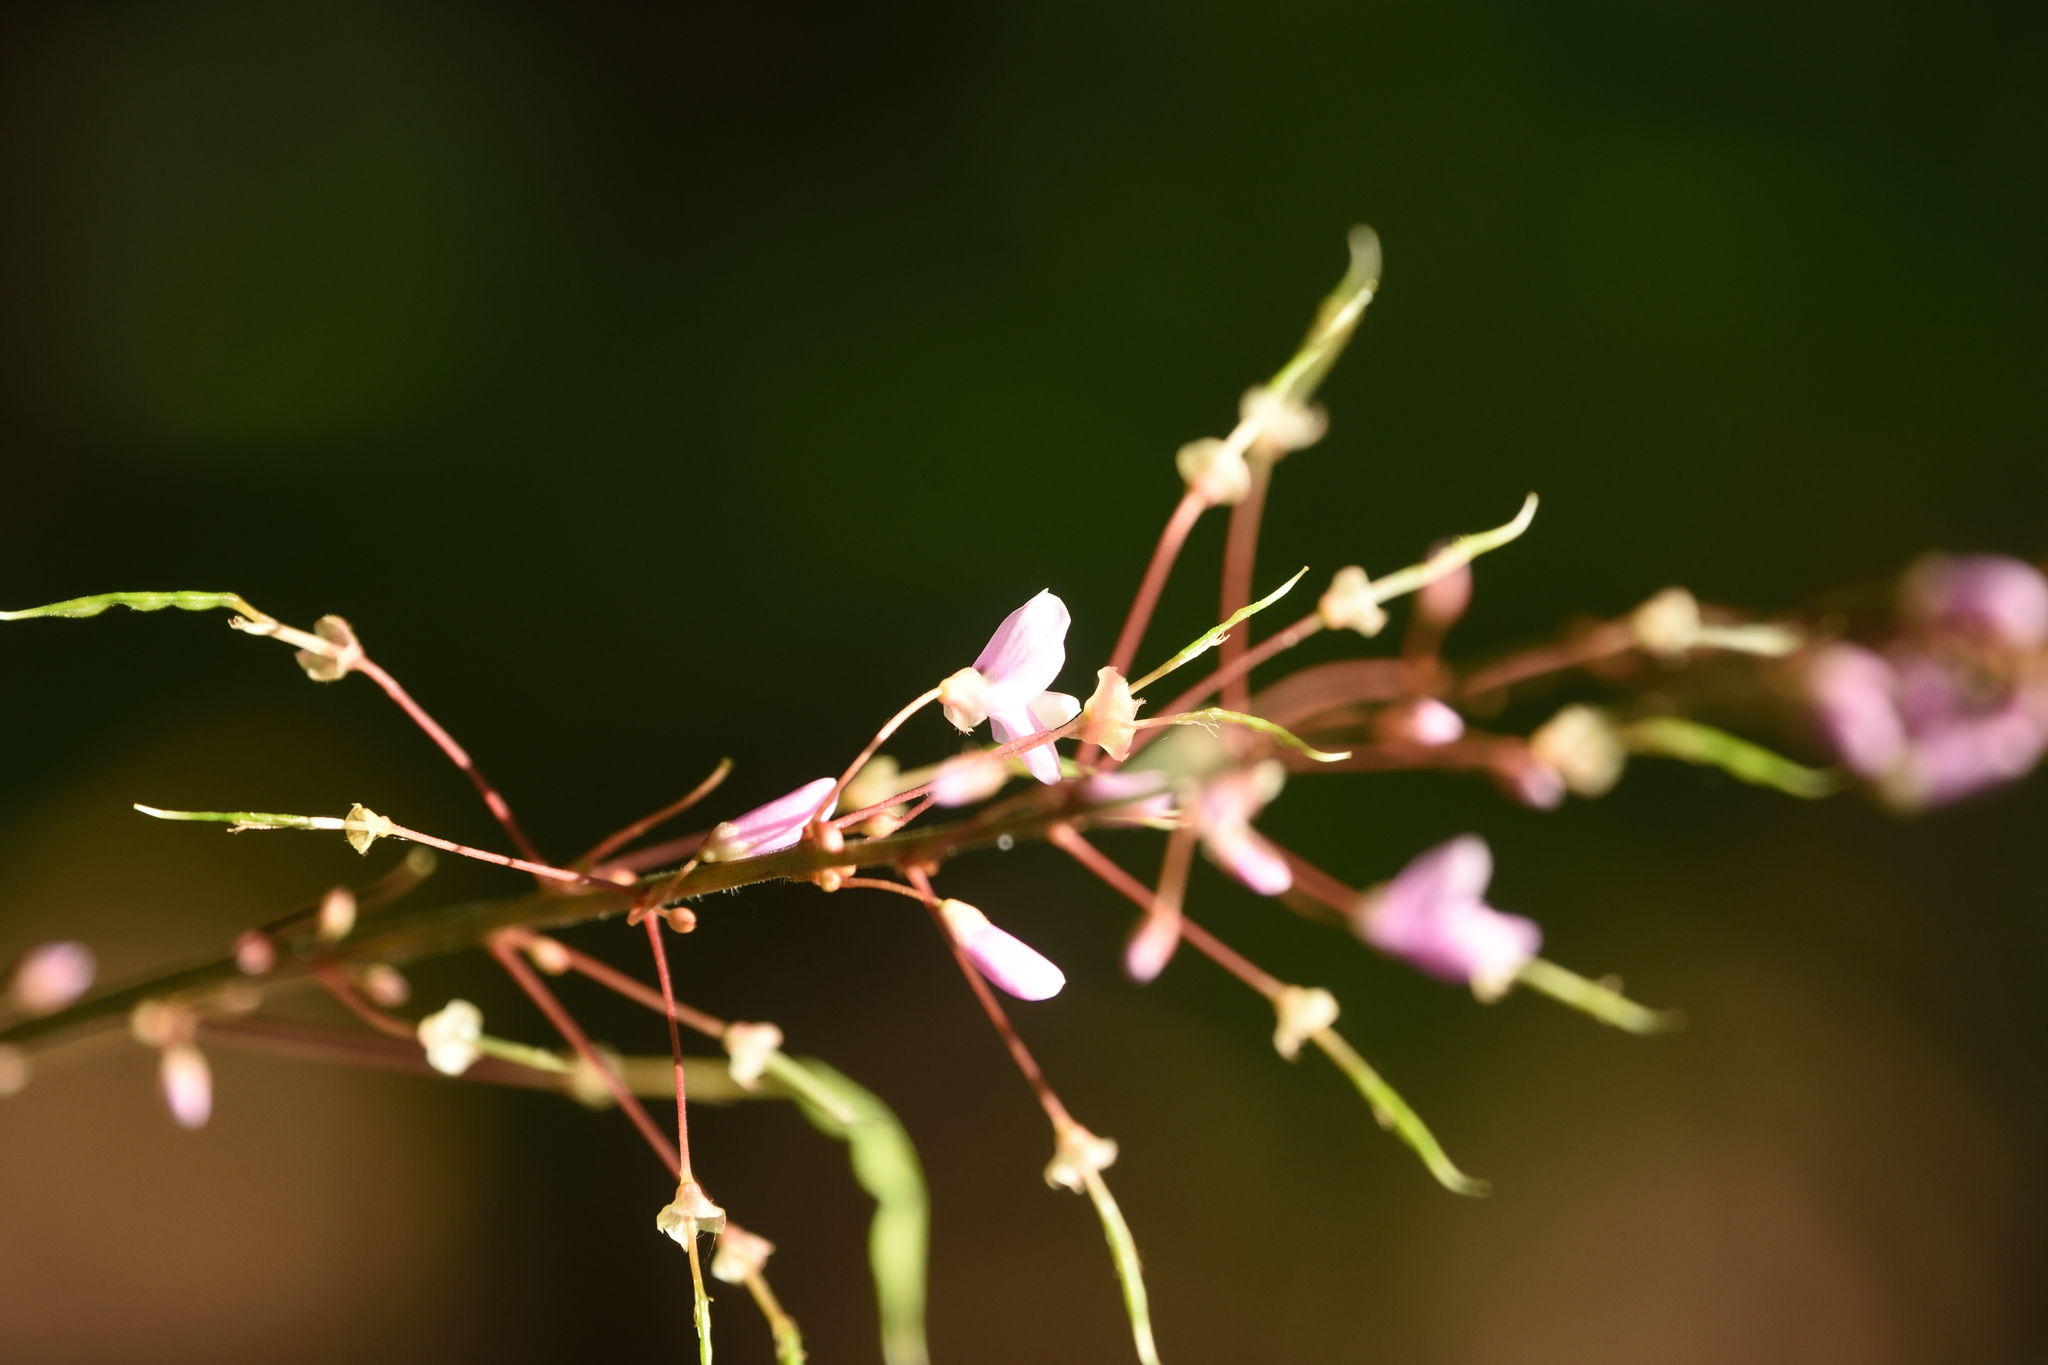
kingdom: Plantae
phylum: Tracheophyta
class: Magnoliopsida
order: Fabales
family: Fabaceae
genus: Hylodesmum
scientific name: Hylodesmum nudiflorum
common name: Bare-stemmed tick-trefoil
